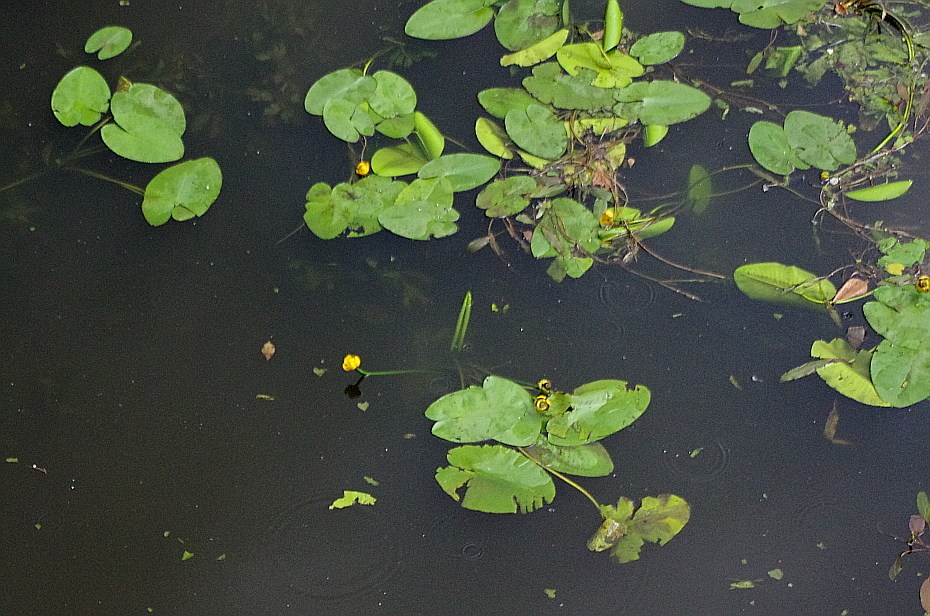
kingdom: Plantae
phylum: Tracheophyta
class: Magnoliopsida
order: Nymphaeales
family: Nymphaeaceae
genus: Nuphar
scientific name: Nuphar lutea
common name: Yellow water-lily
